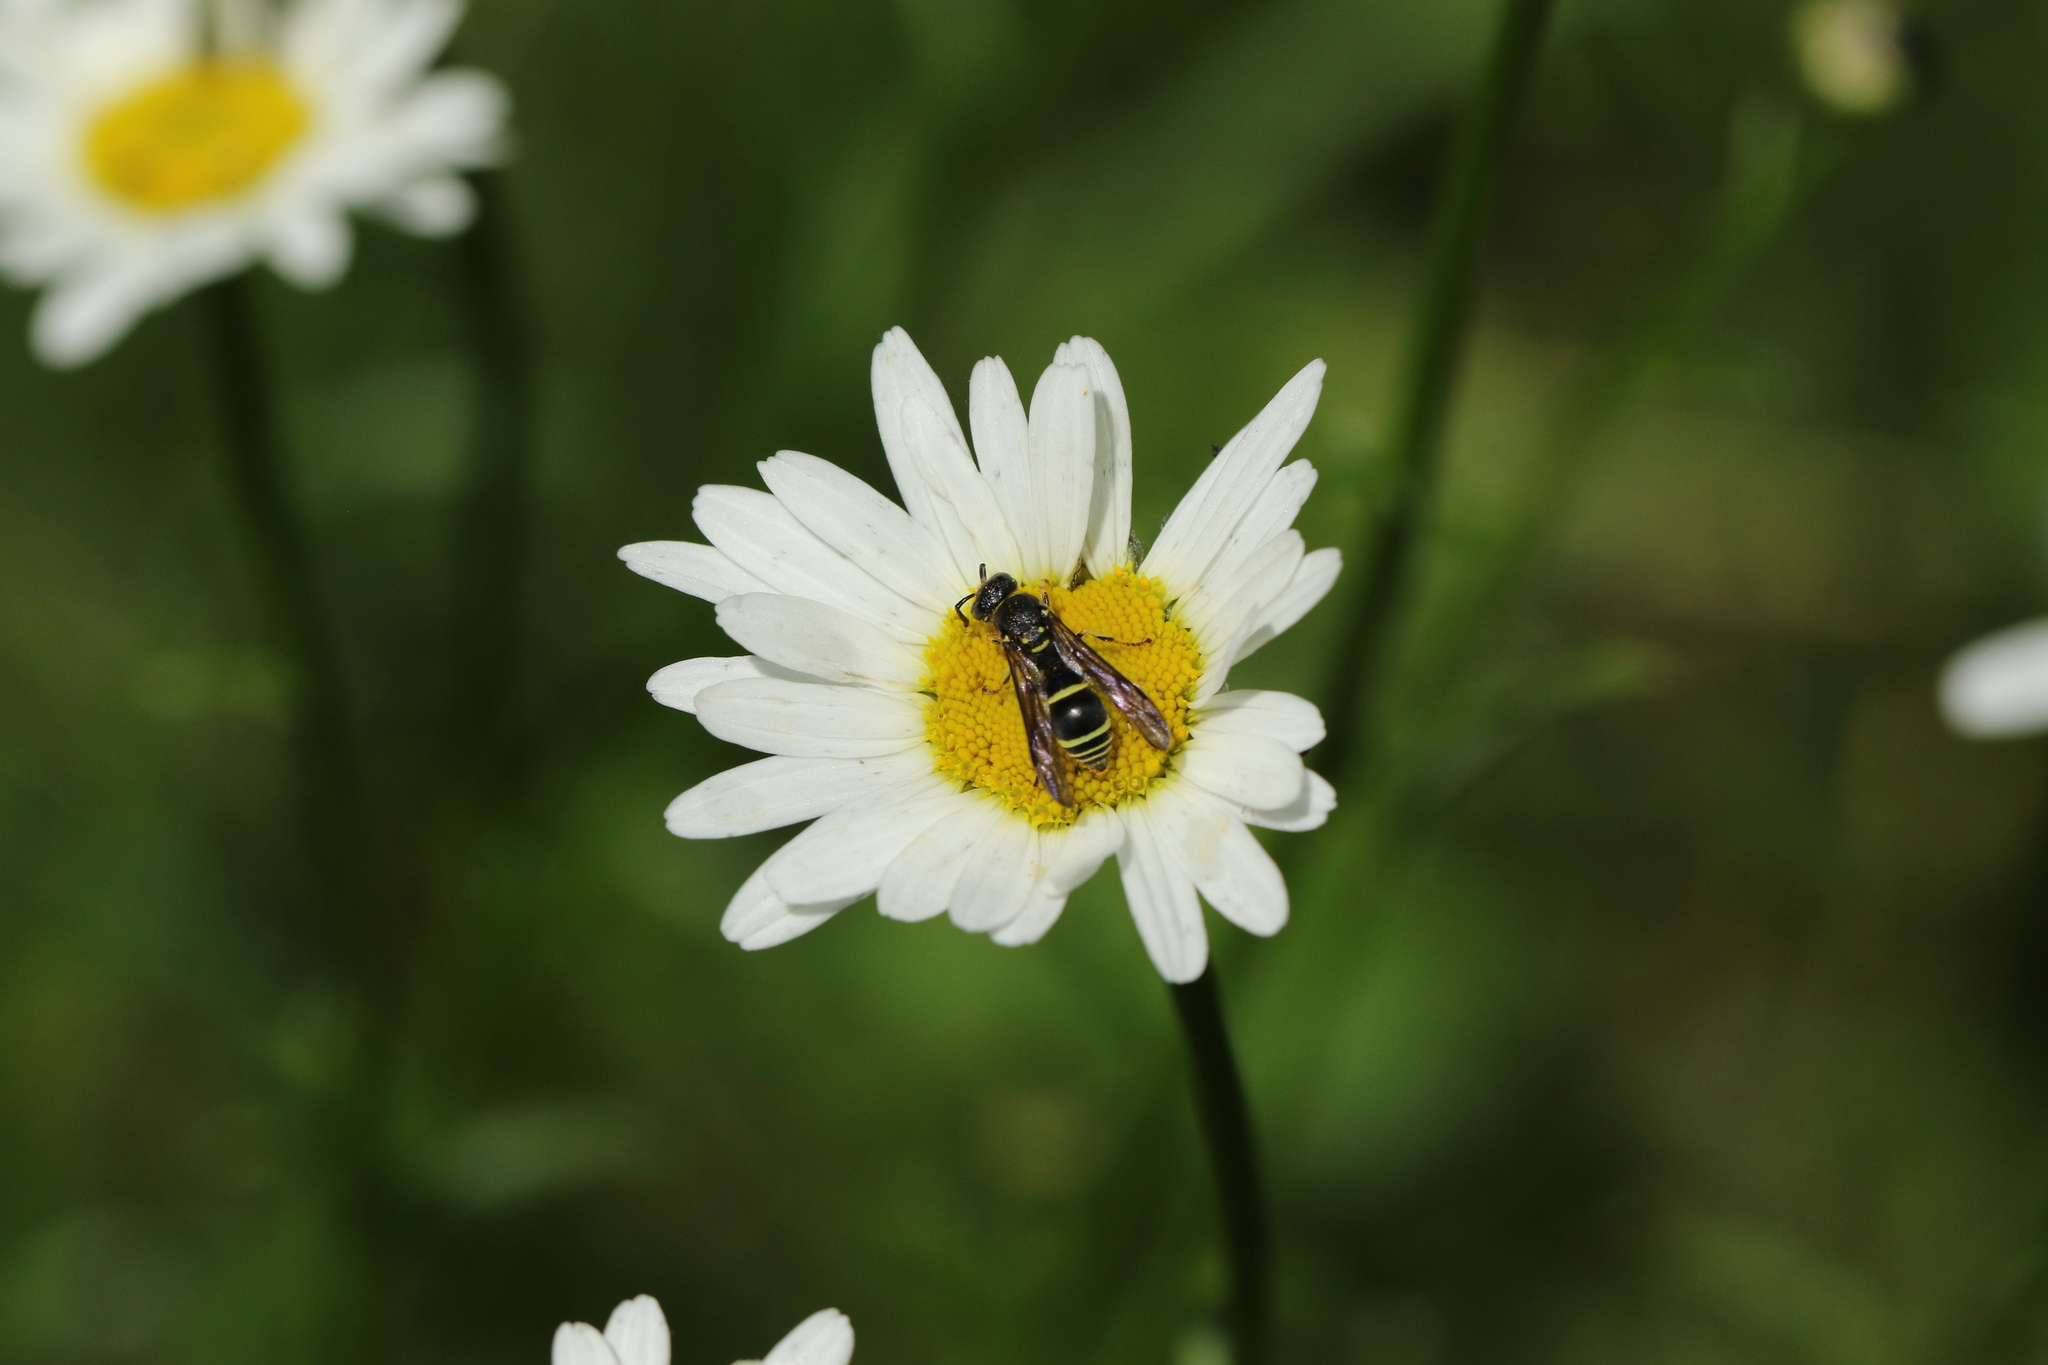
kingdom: Animalia
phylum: Arthropoda
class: Insecta
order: Hymenoptera
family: Vespidae
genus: Ancistrocerus
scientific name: Ancistrocerus adiabatus
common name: Bramble mason wasp
